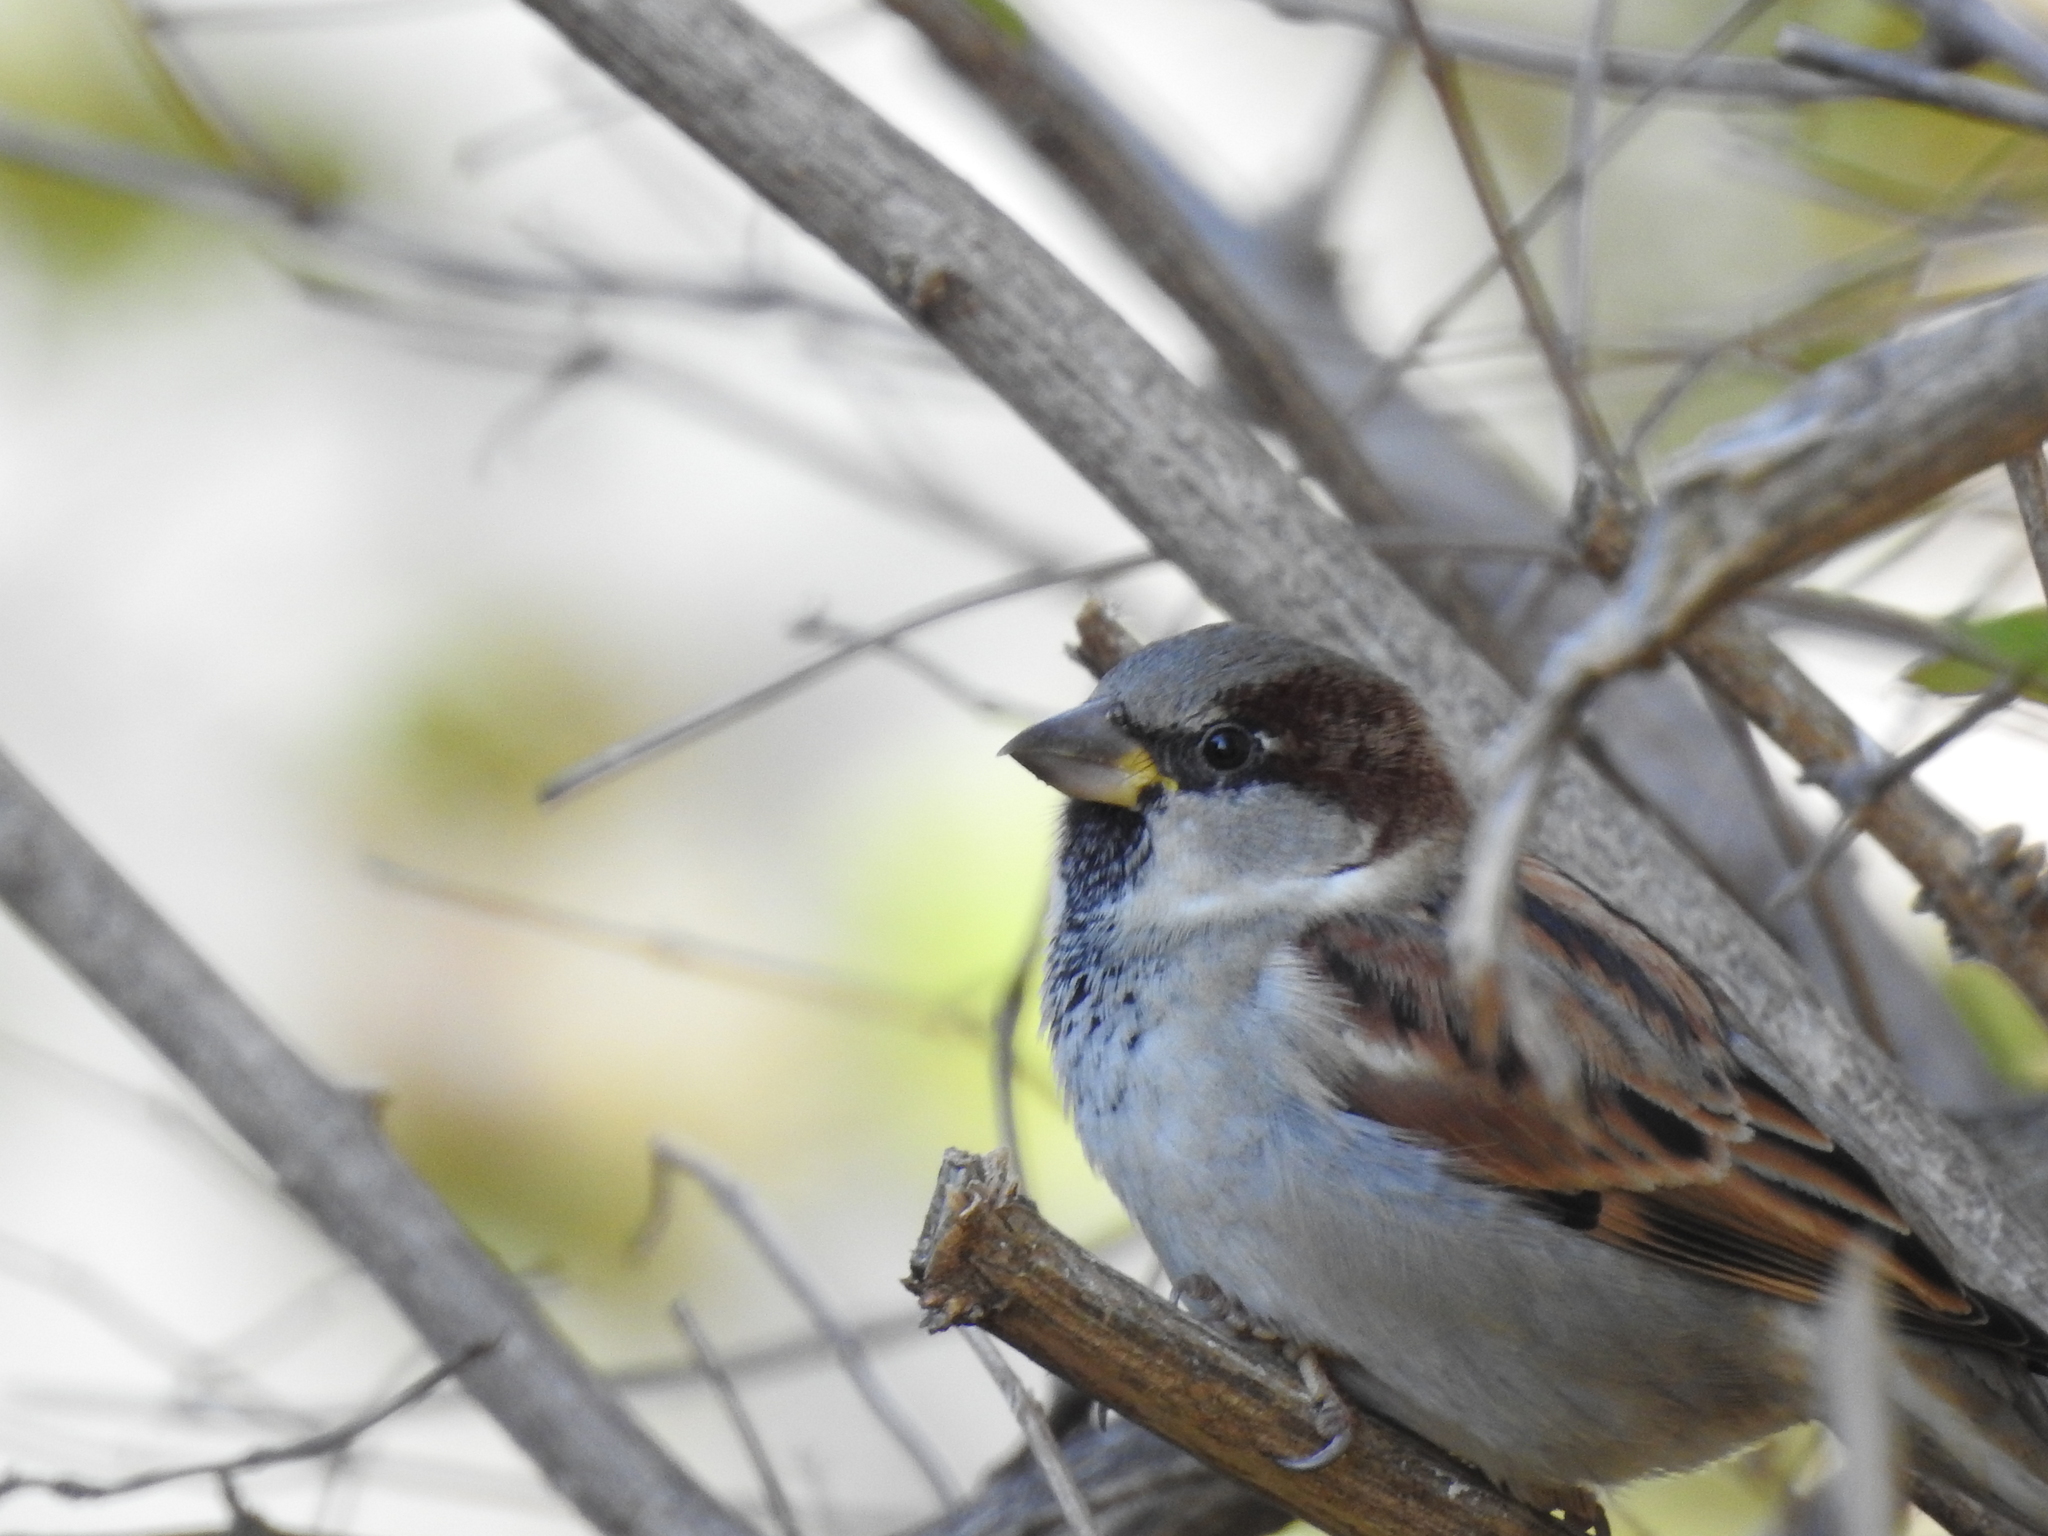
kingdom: Animalia
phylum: Chordata
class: Aves
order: Passeriformes
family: Passeridae
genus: Passer
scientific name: Passer domesticus
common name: House sparrow
